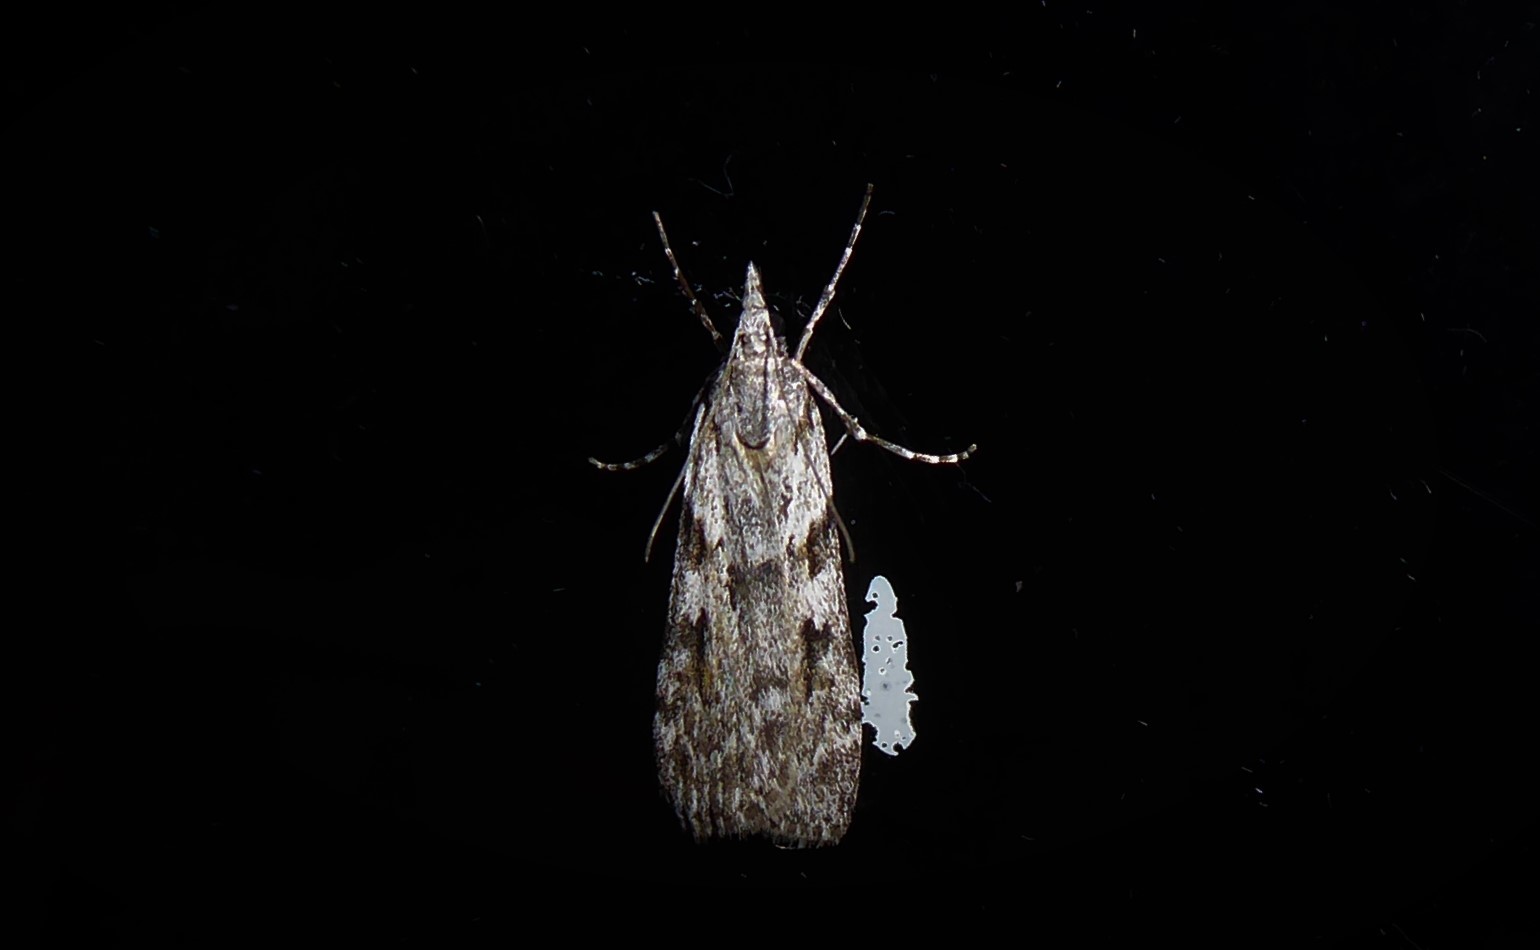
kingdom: Animalia
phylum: Arthropoda
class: Insecta
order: Lepidoptera
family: Crambidae
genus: Scoparia
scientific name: Scoparia halopis
